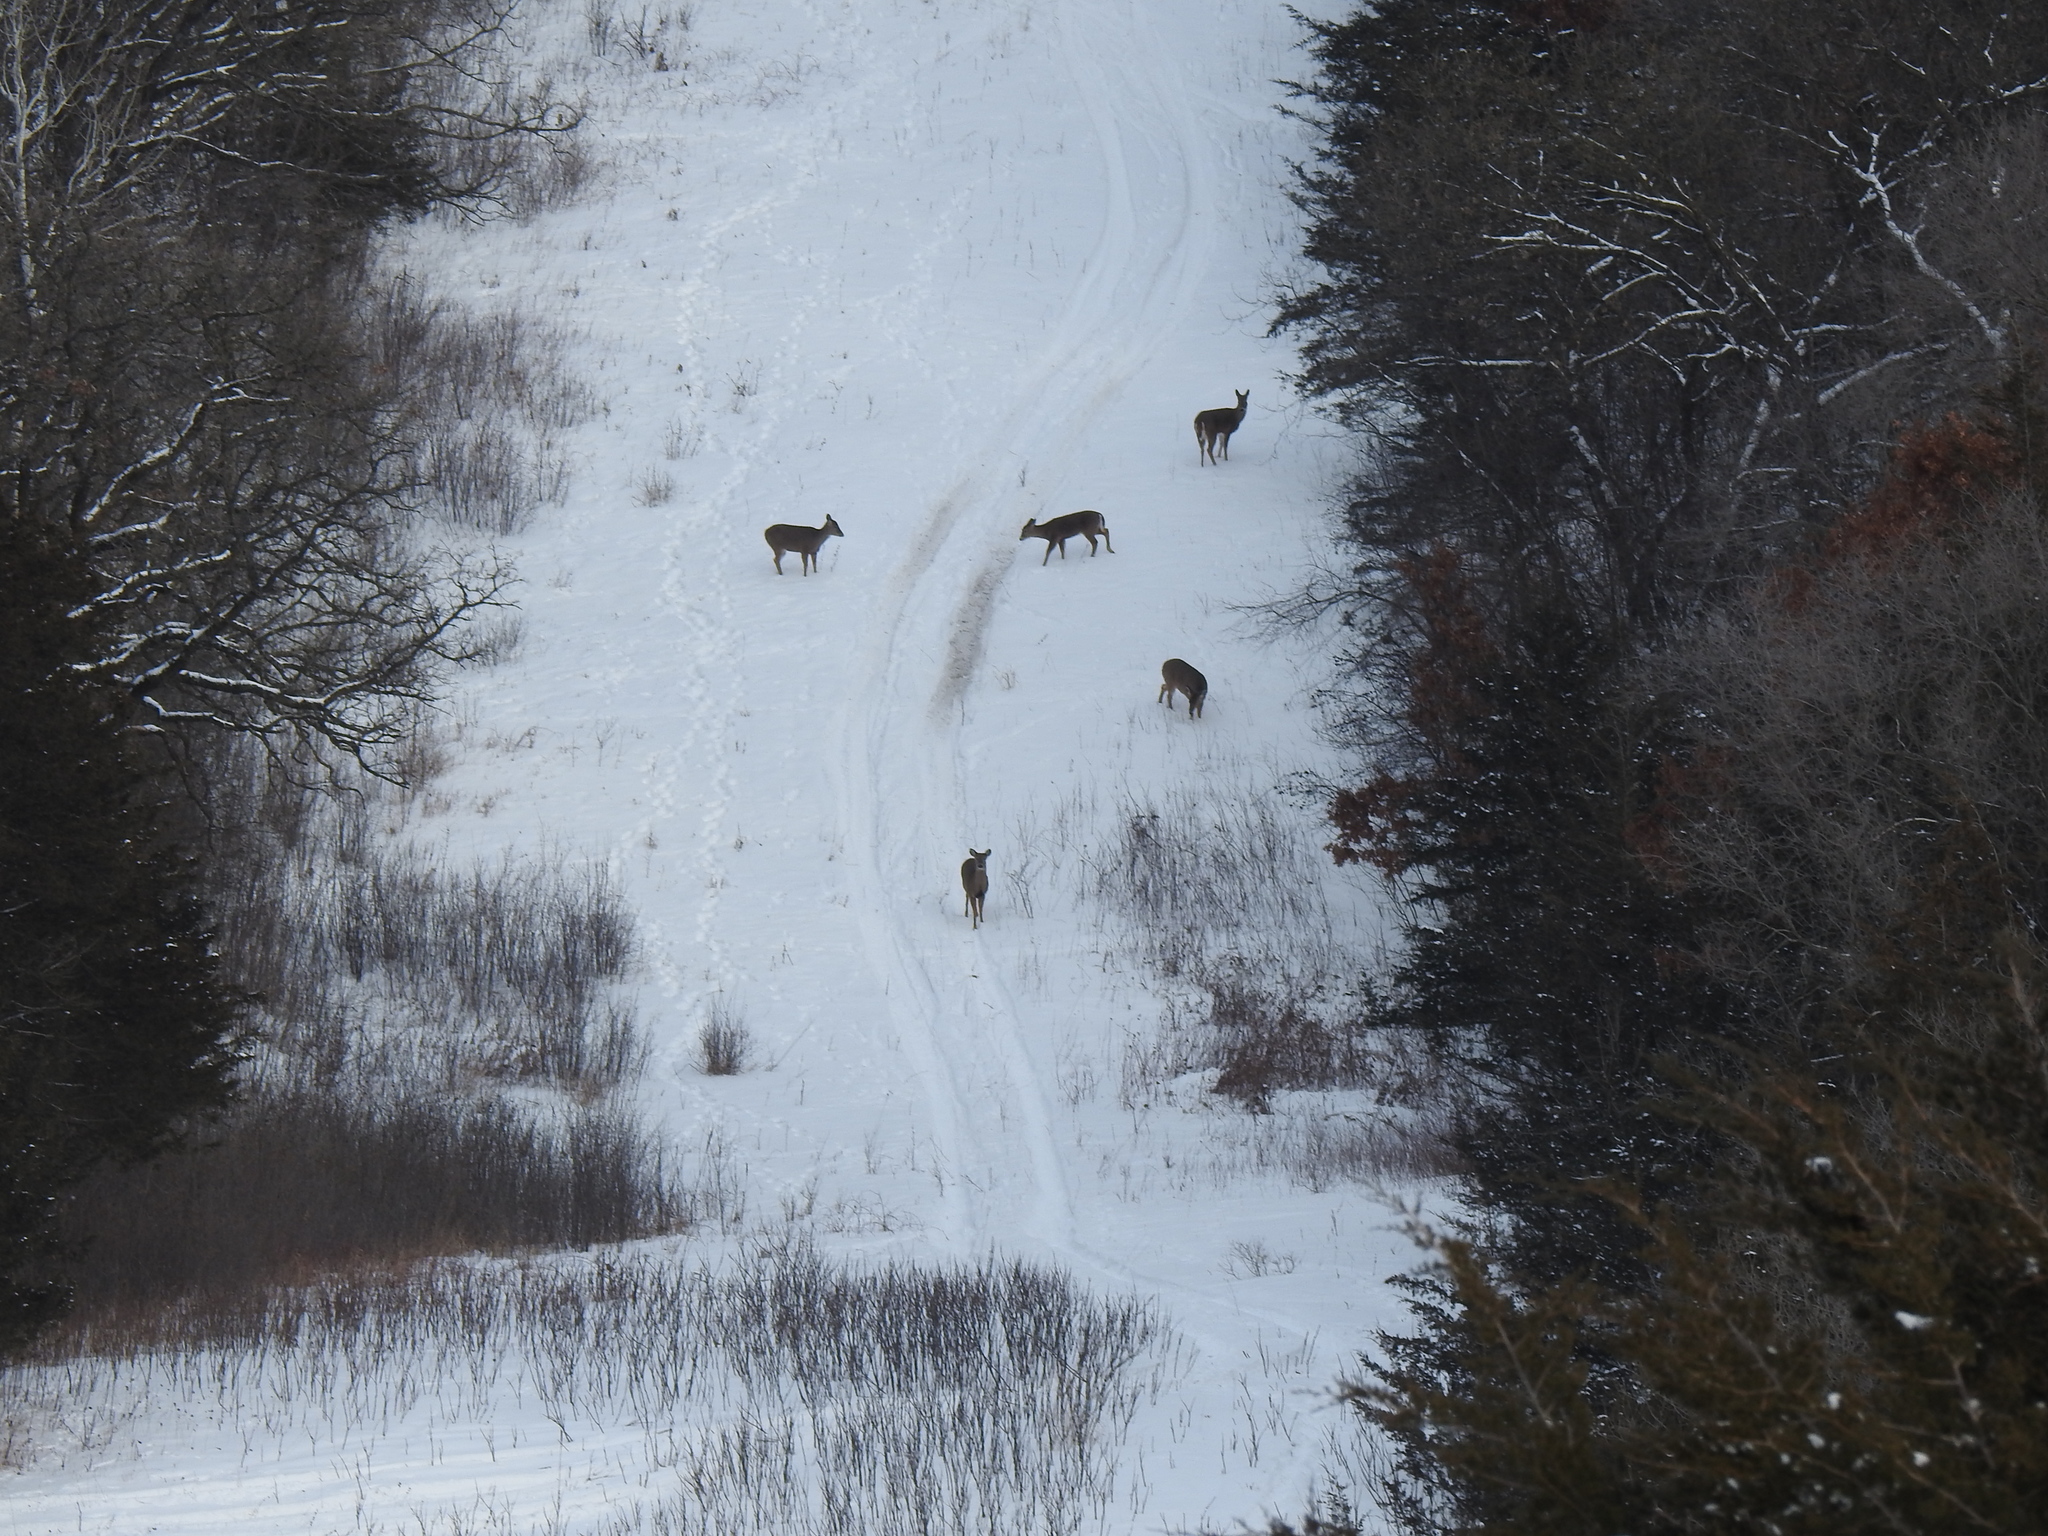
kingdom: Animalia
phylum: Chordata
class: Mammalia
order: Artiodactyla
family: Cervidae
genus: Odocoileus
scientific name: Odocoileus virginianus
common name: White-tailed deer
